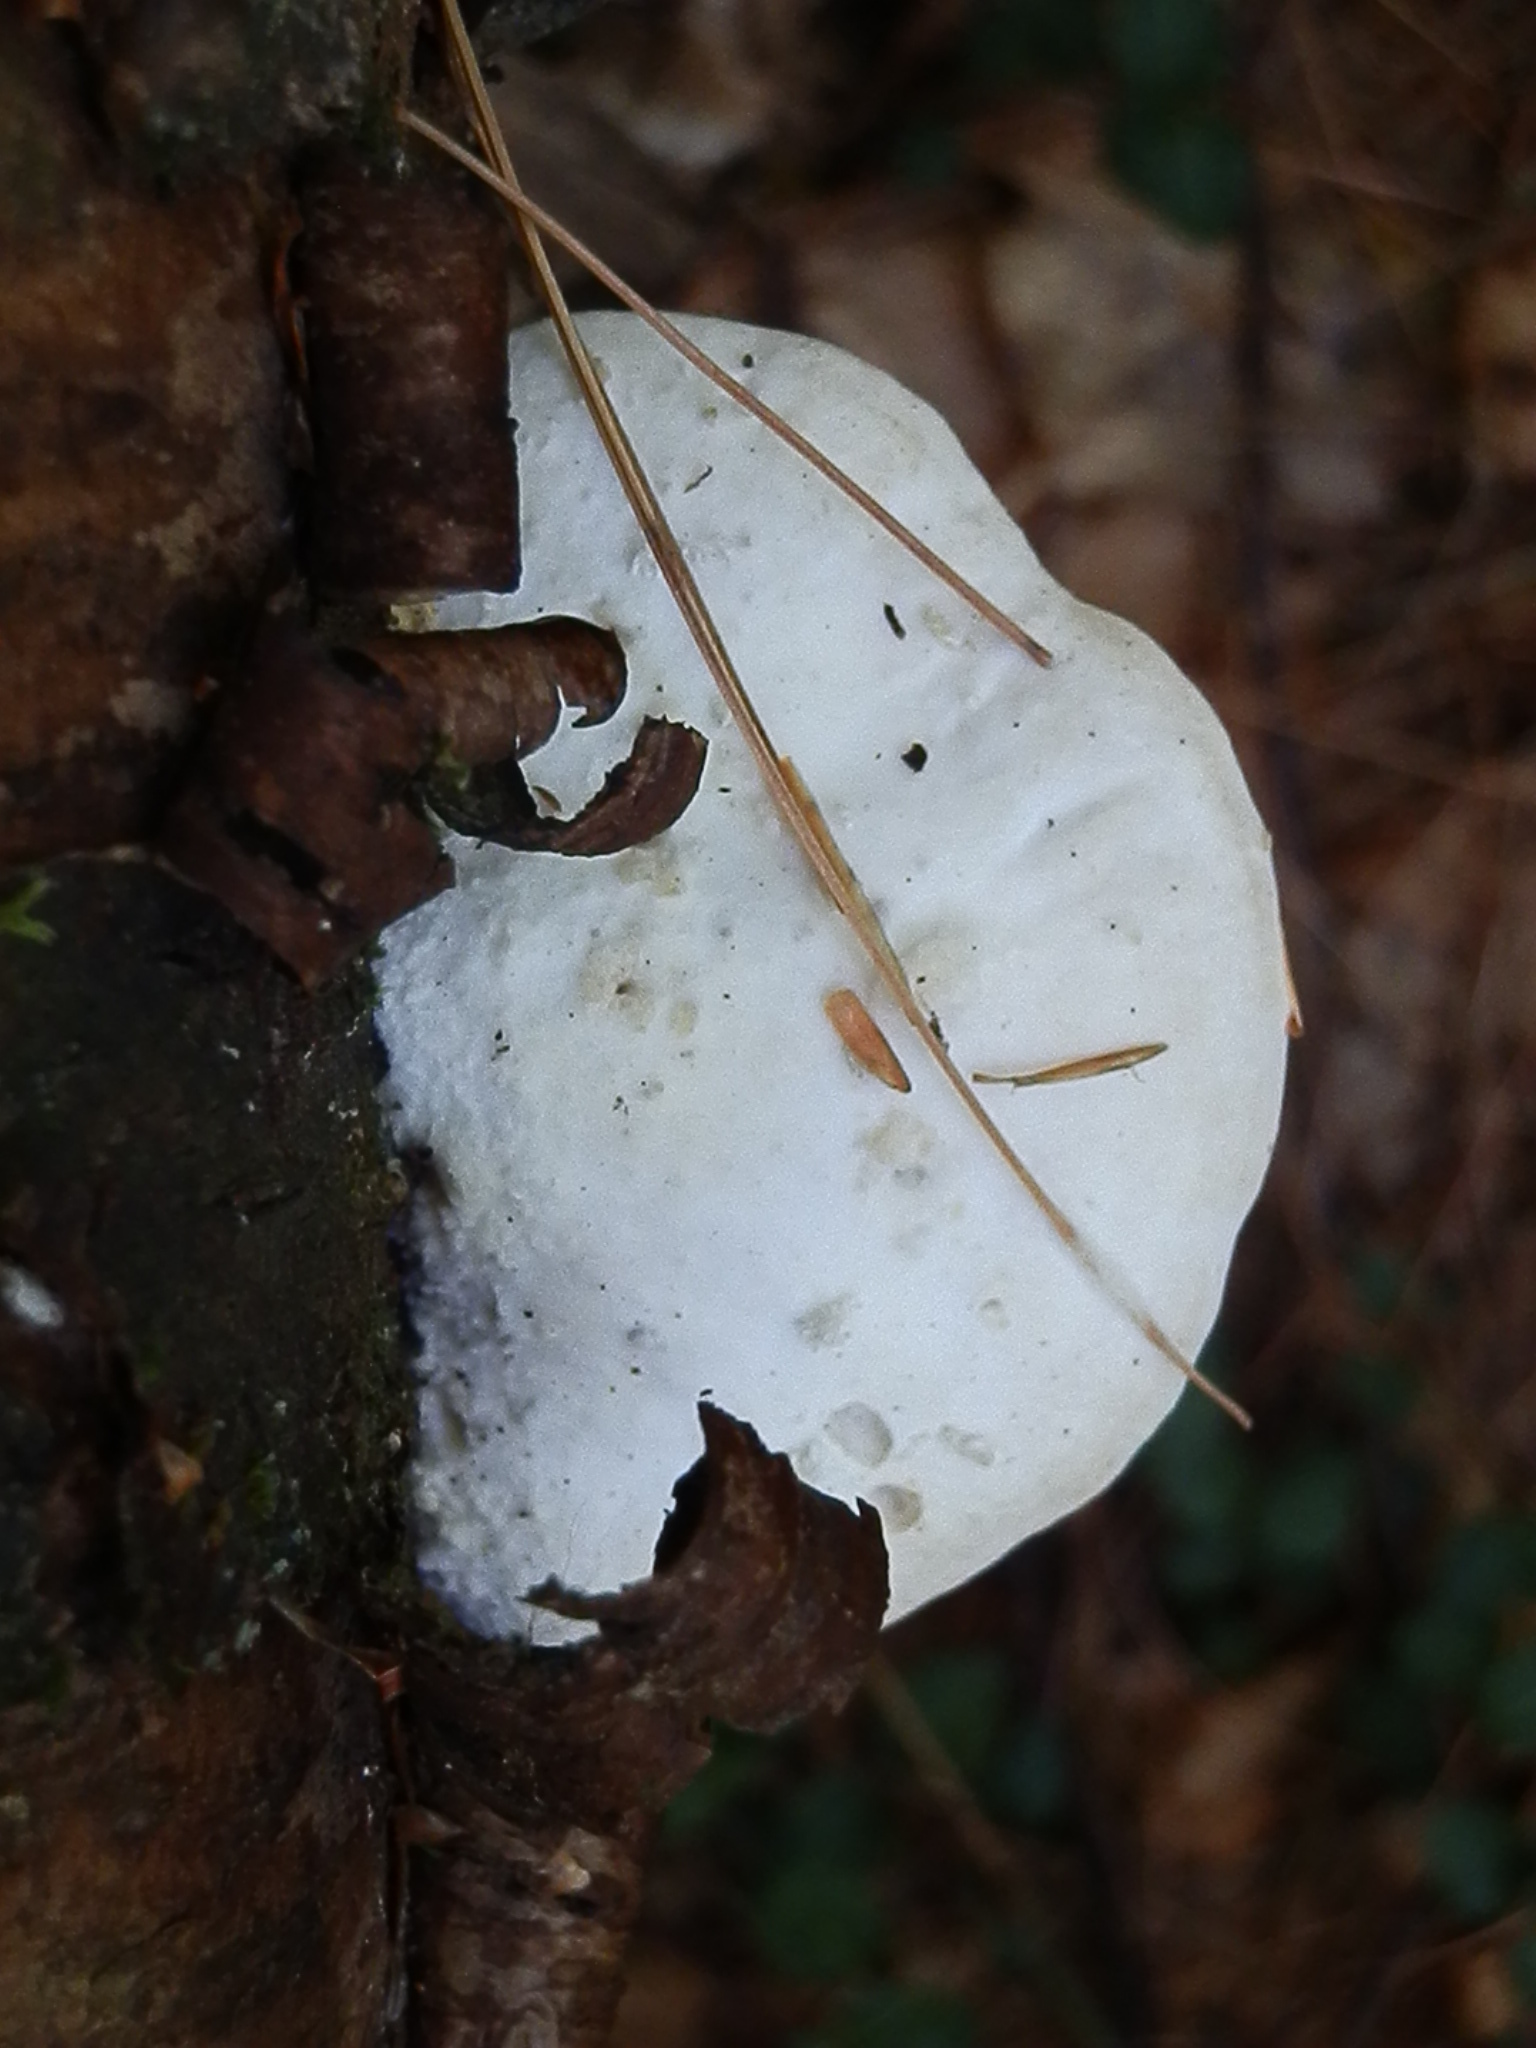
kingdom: Fungi
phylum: Basidiomycota
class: Agaricomycetes
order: Polyporales
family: Incrustoporiaceae
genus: Tyromyces
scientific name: Tyromyces chioneus
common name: White cheese polypore
